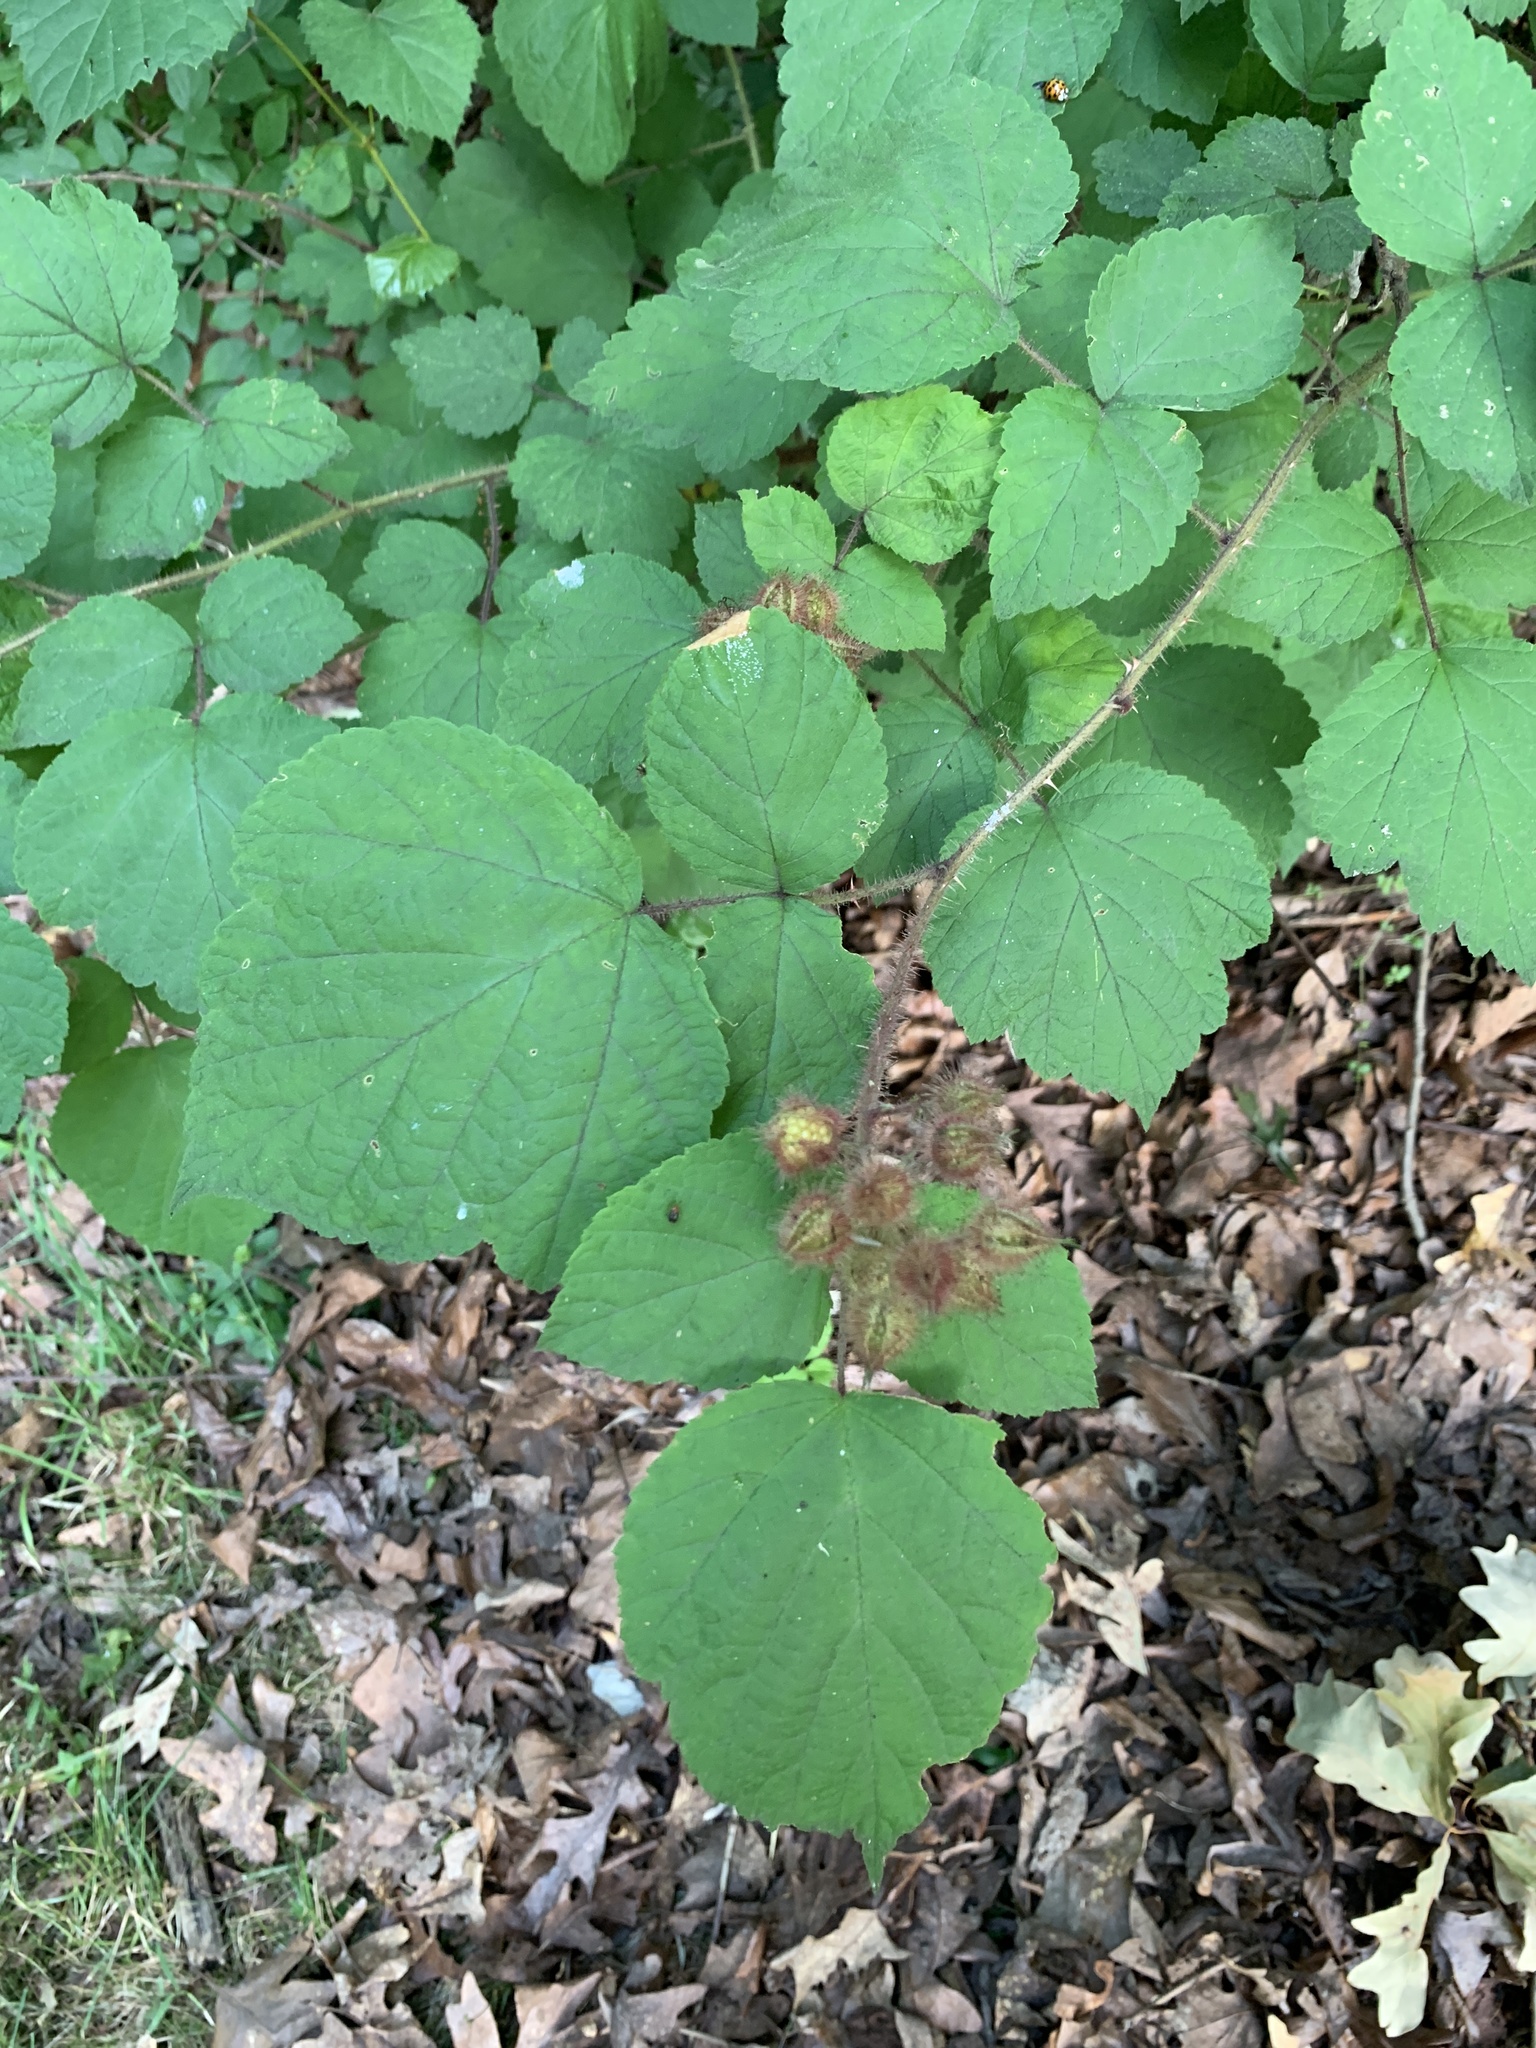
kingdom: Plantae
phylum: Tracheophyta
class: Magnoliopsida
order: Rosales
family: Rosaceae
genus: Rubus
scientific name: Rubus phoenicolasius
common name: Japanese wineberry
